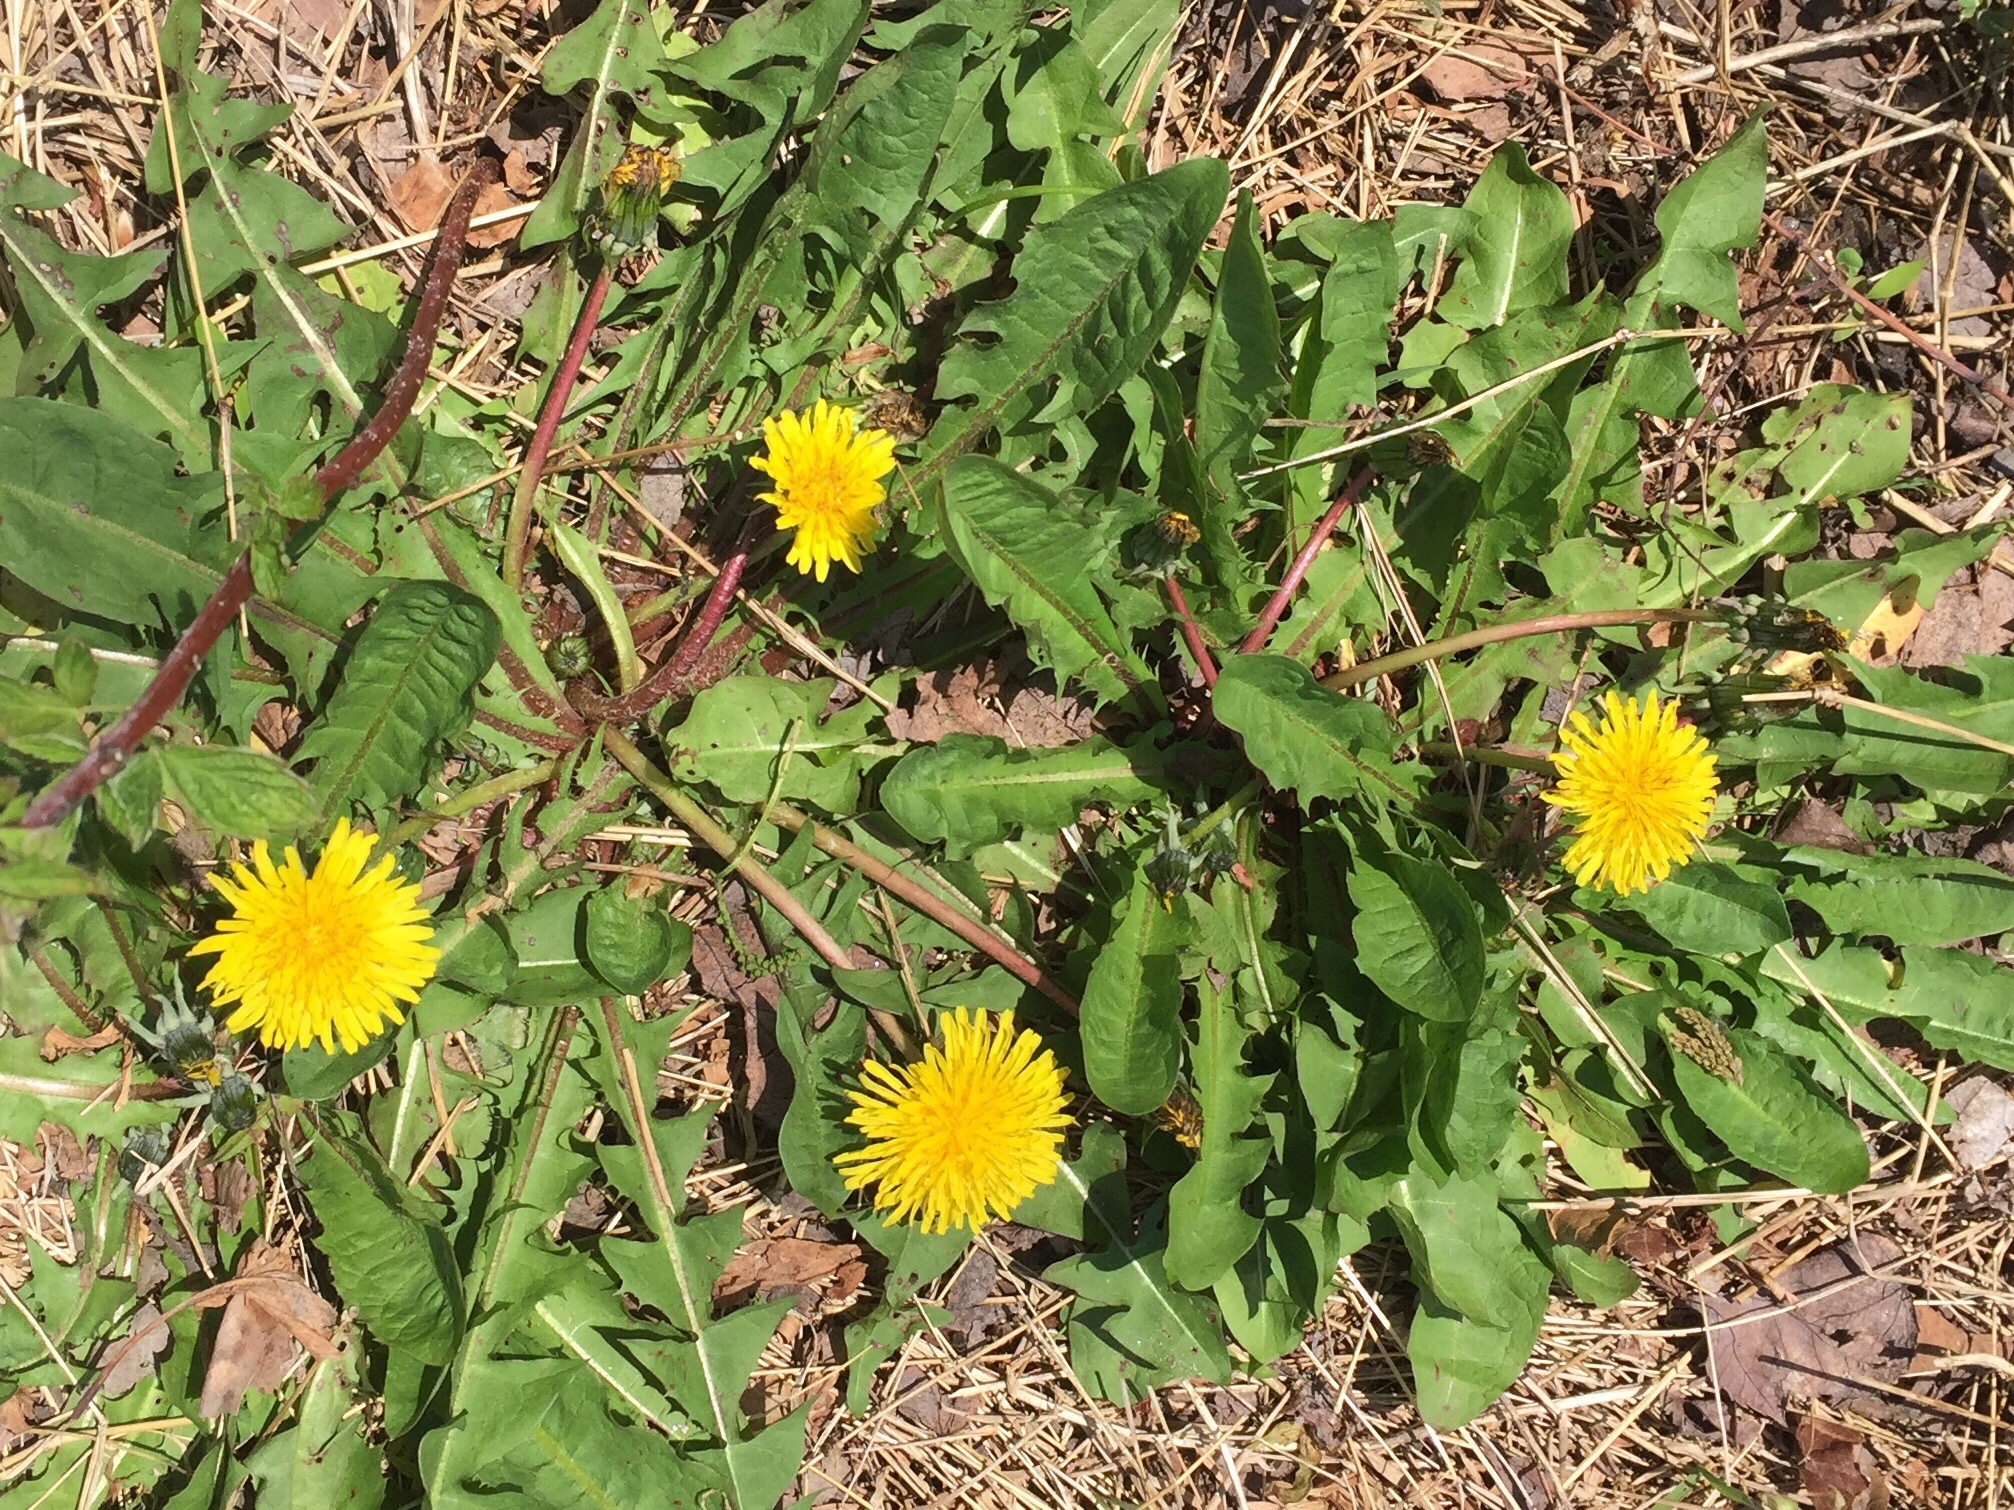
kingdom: Plantae
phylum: Tracheophyta
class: Magnoliopsida
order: Asterales
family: Asteraceae
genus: Taraxacum
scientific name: Taraxacum officinale
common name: Common dandelion
